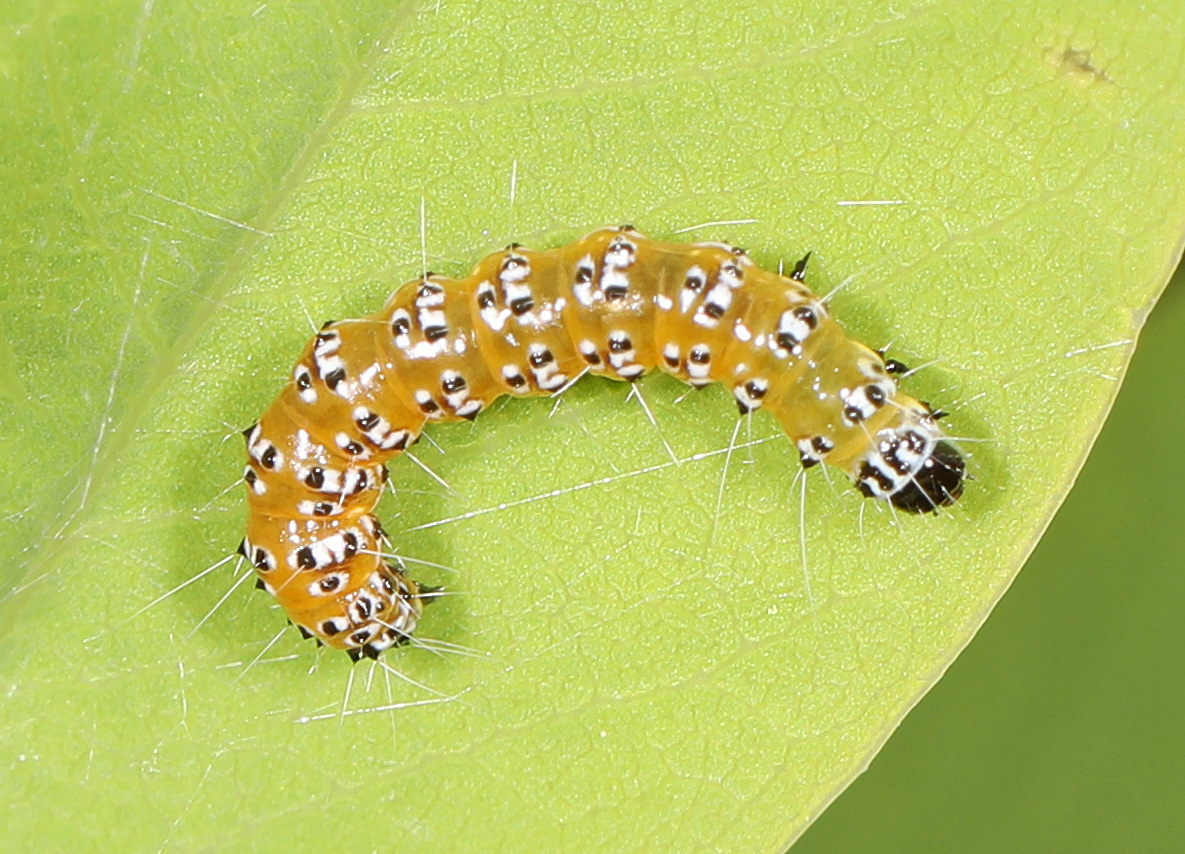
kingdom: Animalia
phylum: Arthropoda
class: Insecta
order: Lepidoptera
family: Crambidae
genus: Uresiphita
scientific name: Uresiphita reversalis
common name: Genista broom moth
